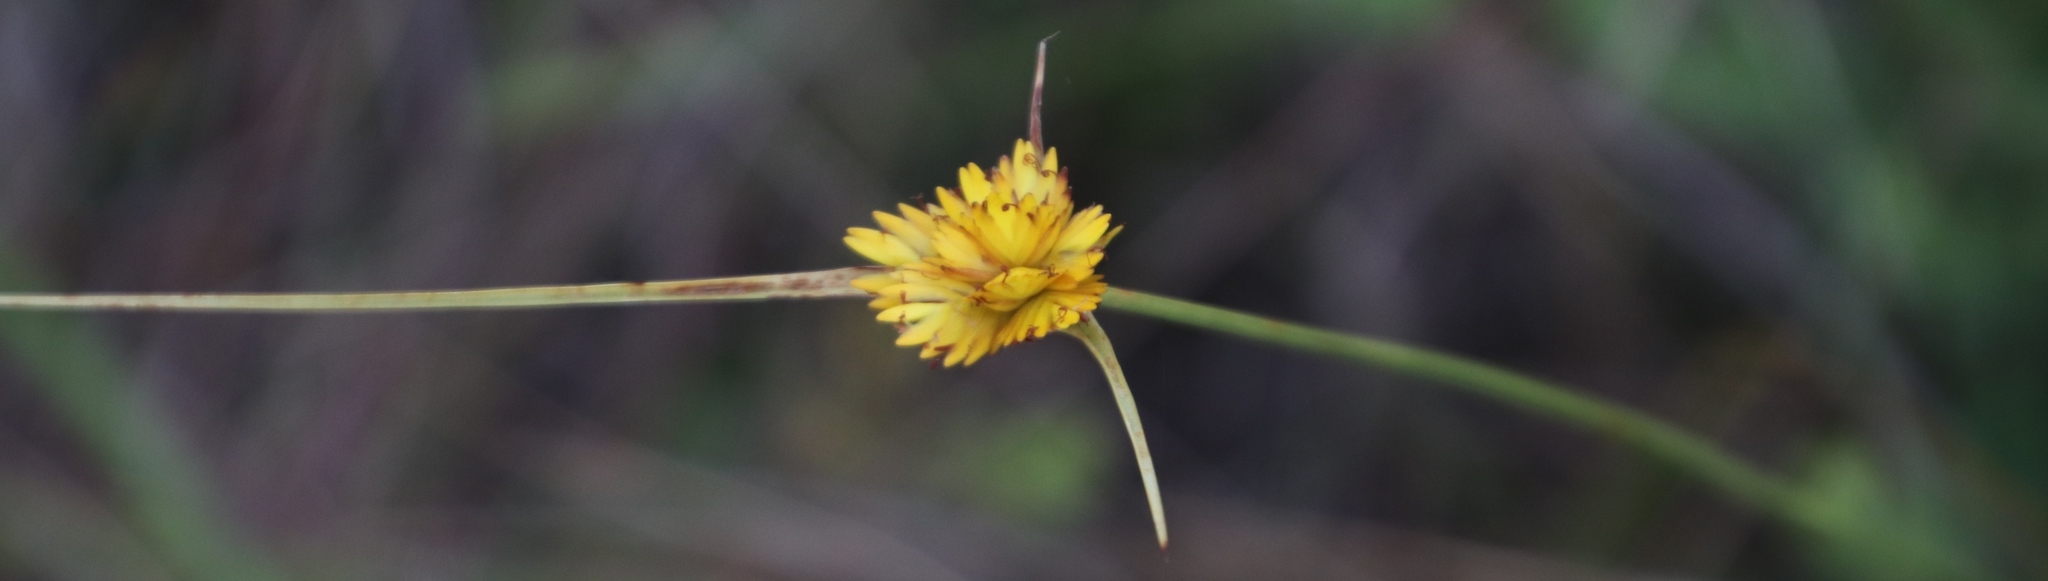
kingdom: Plantae
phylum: Tracheophyta
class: Liliopsida
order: Poales
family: Cyperaceae
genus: Cyperus
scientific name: Cyperus sphaerocephalus
